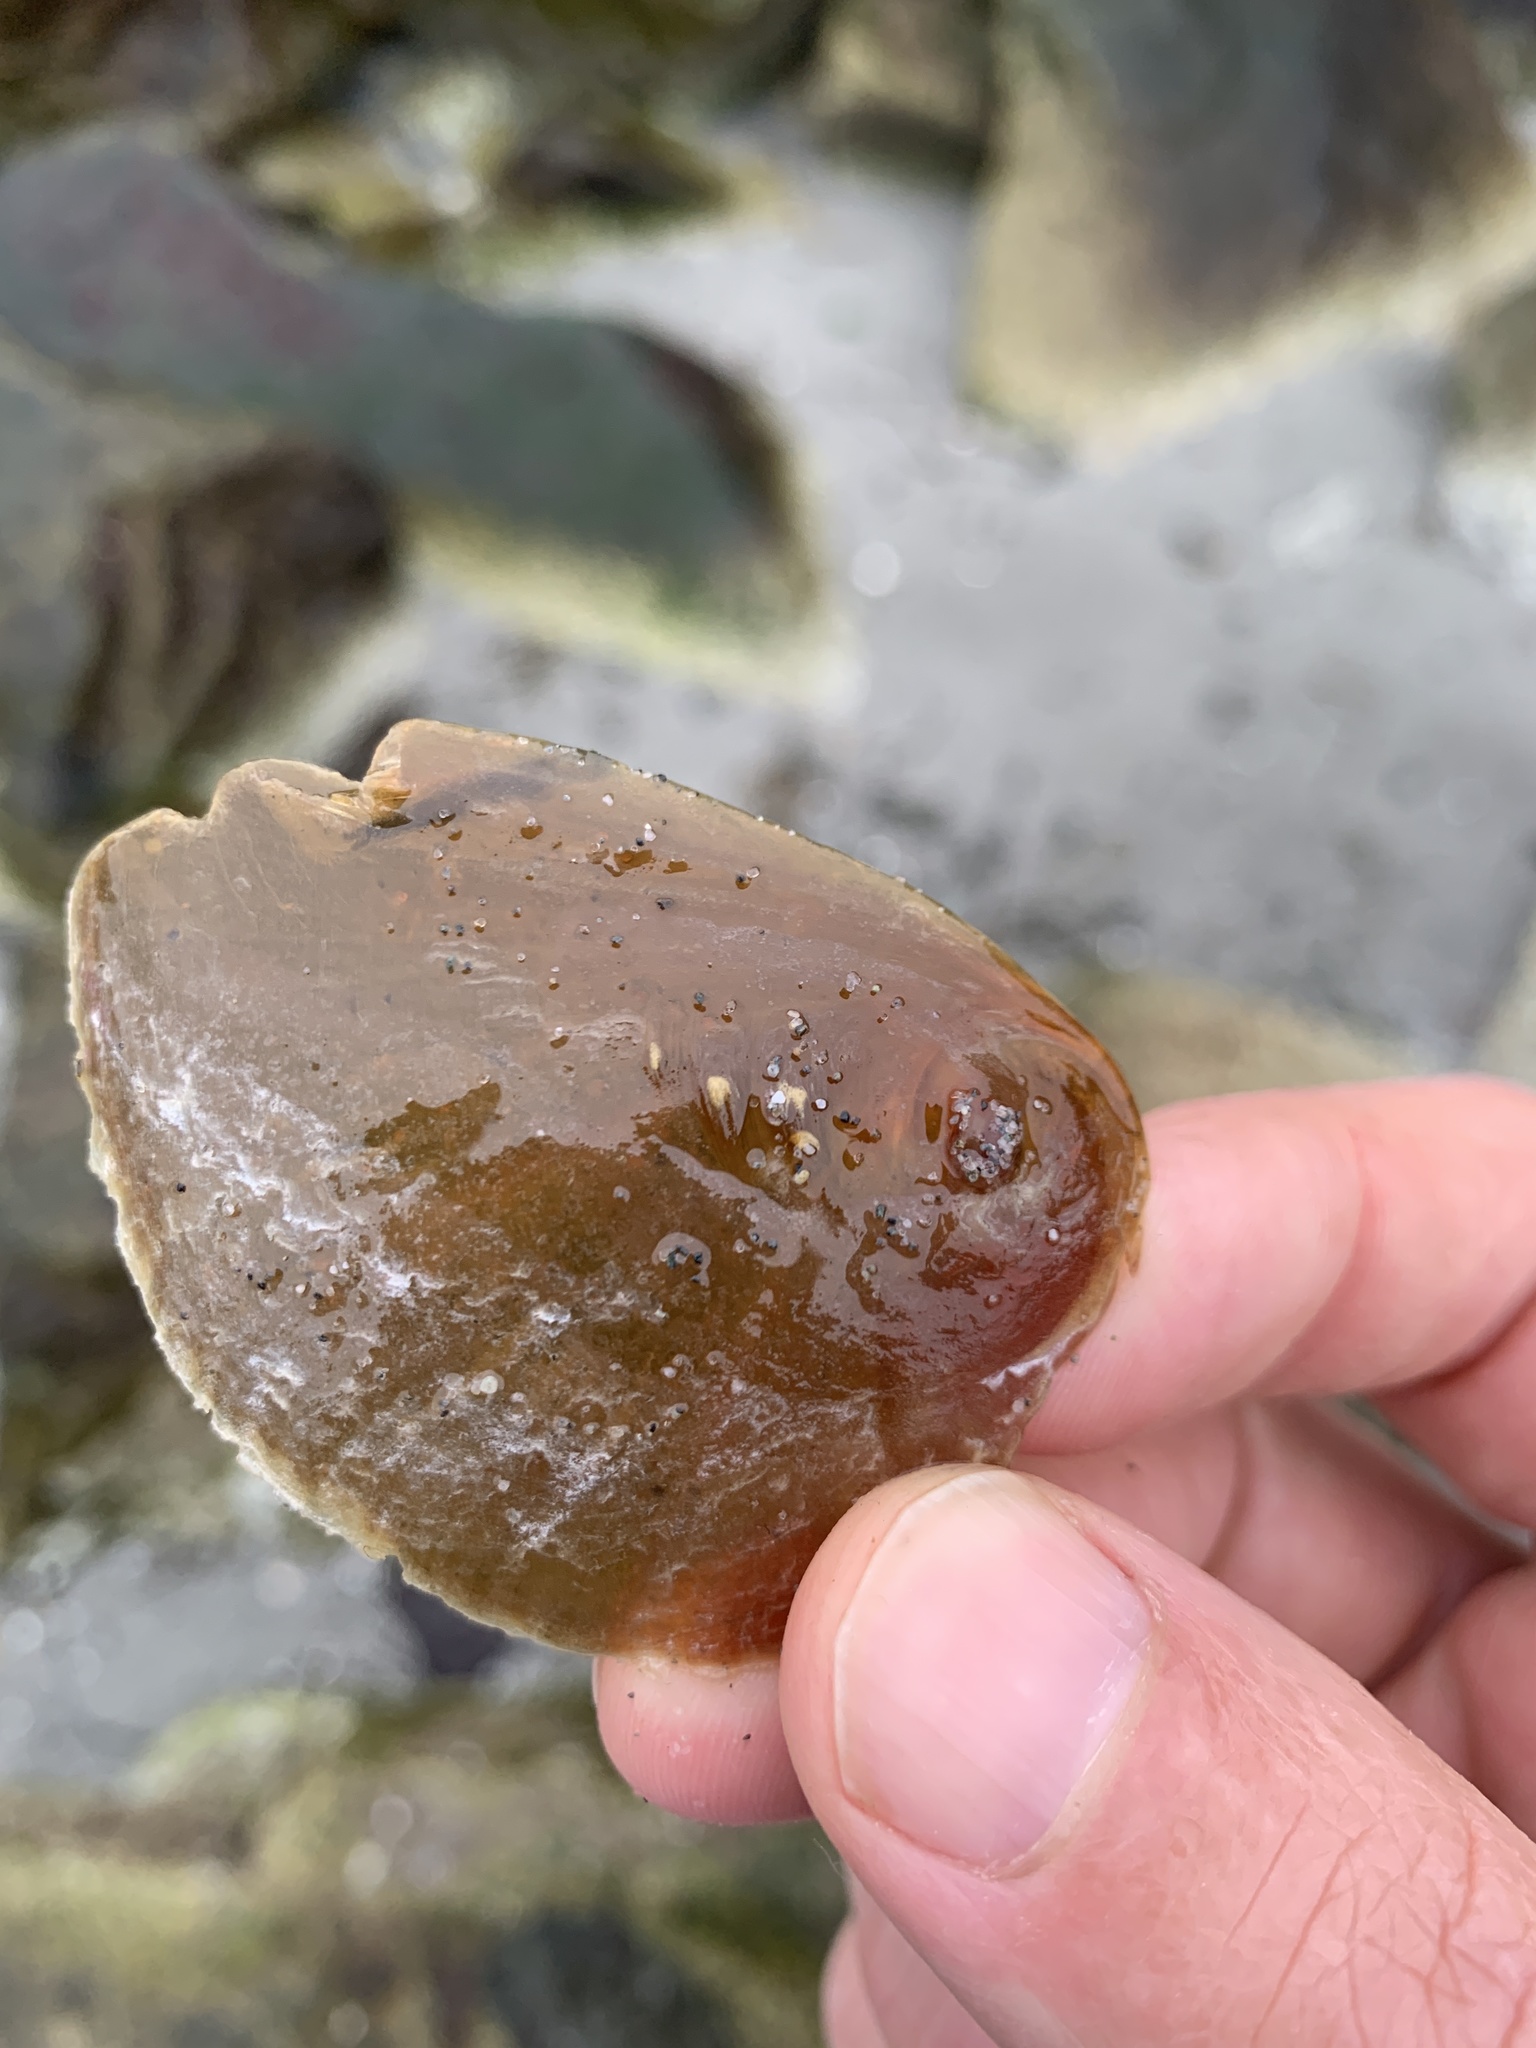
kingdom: Animalia
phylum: Mollusca
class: Gastropoda
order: Littorinimorpha
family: Naticidae
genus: Neverita
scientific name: Neverita lewisii
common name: Lewis' moonsnail
